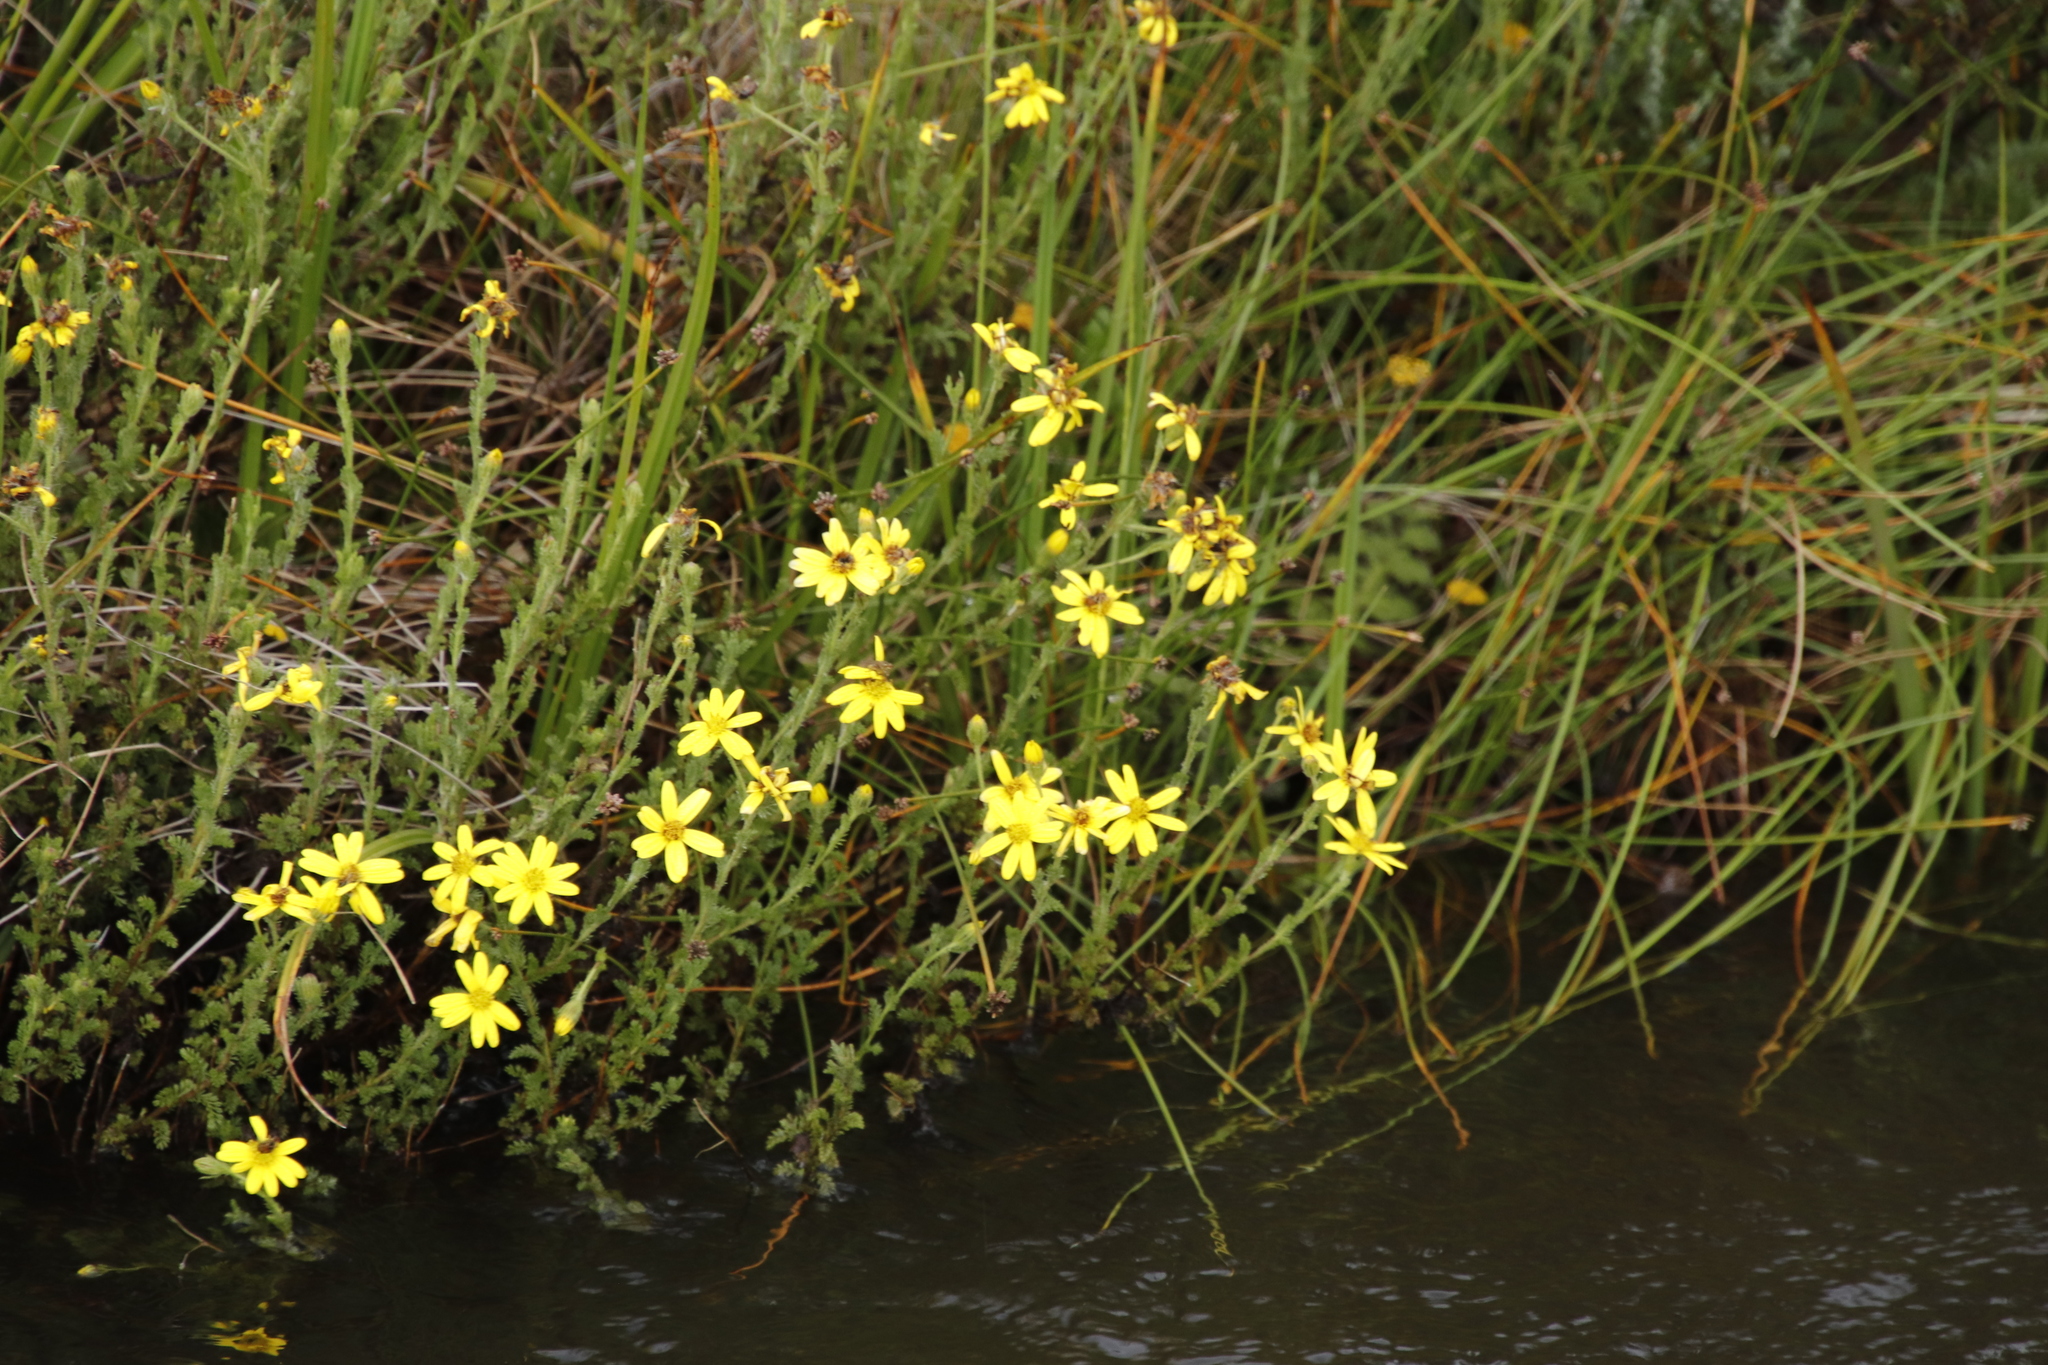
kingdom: Plantae
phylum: Tracheophyta
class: Magnoliopsida
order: Asterales
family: Asteraceae
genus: Senecio
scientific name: Senecio seminiveus
